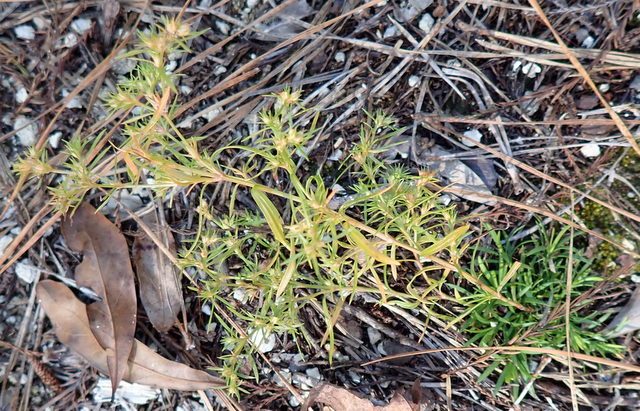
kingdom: Plantae
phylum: Tracheophyta
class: Magnoliopsida
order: Lamiales
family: Tetrachondraceae
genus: Polypremum
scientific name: Polypremum procumbens
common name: Juniper-leaf
